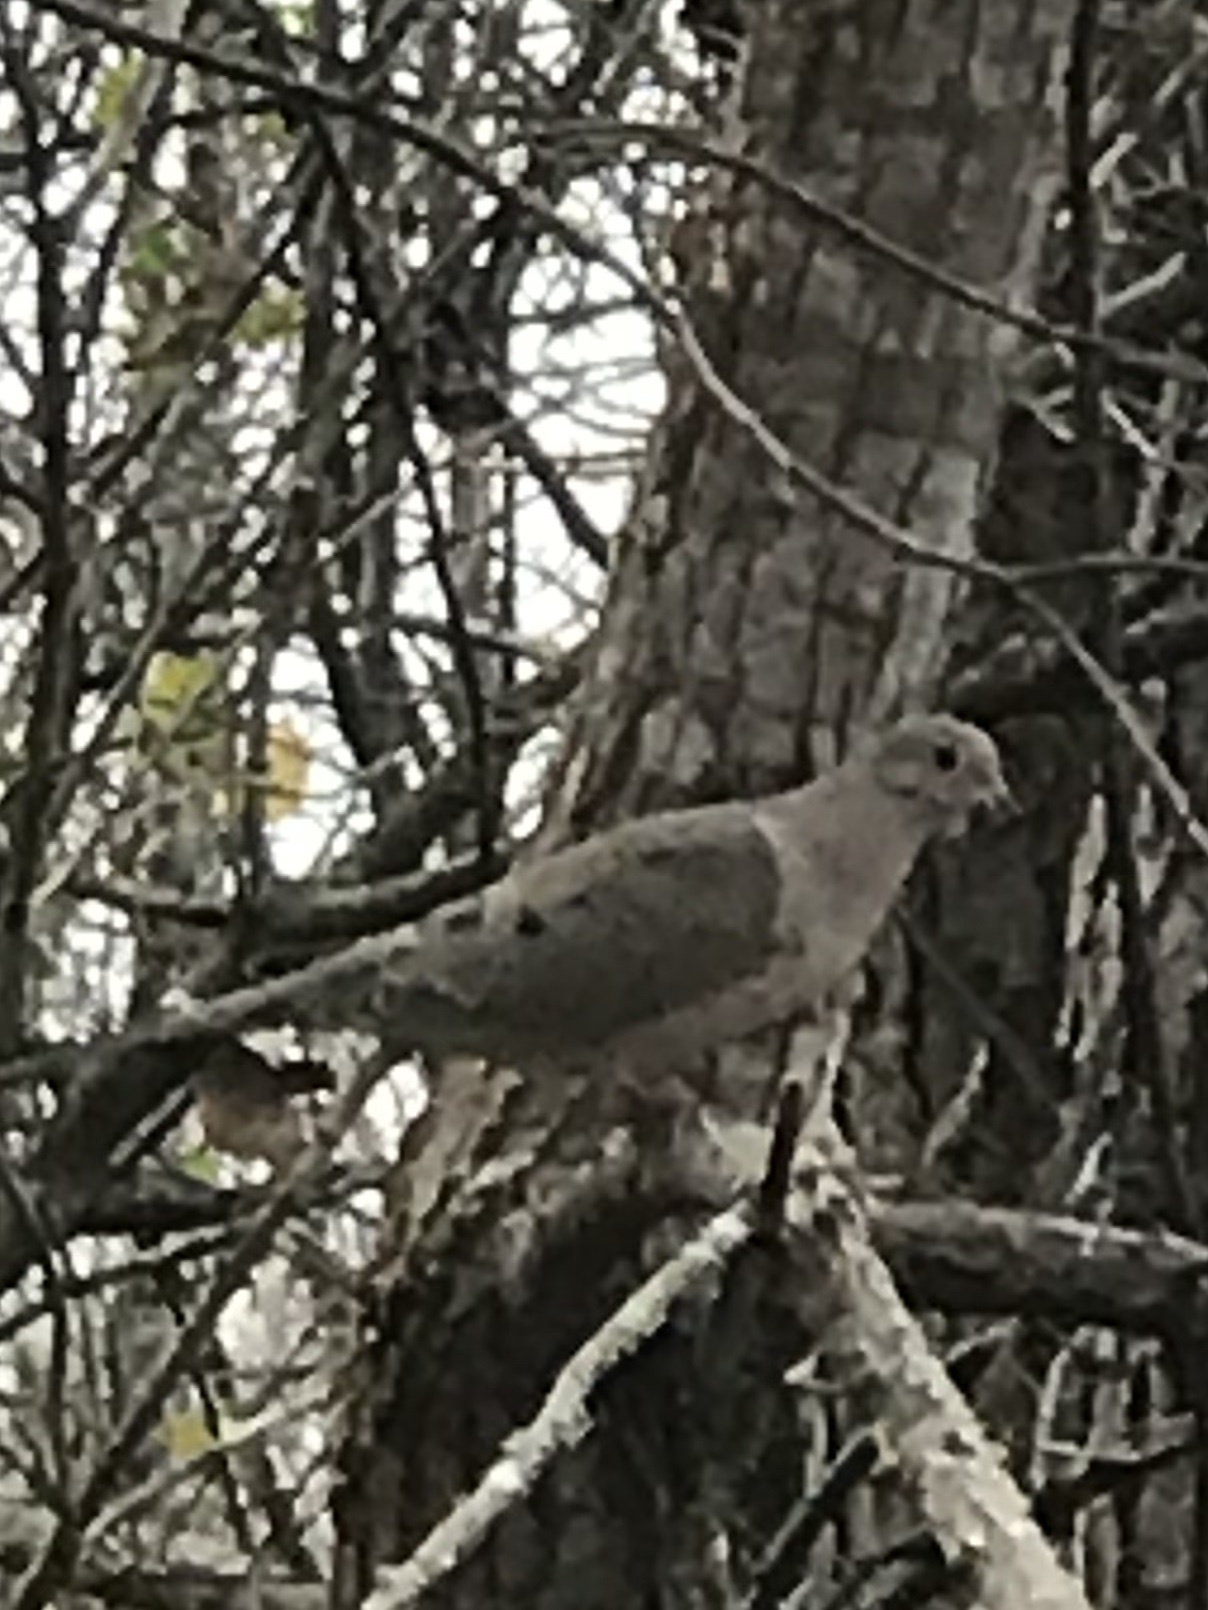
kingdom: Animalia
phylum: Chordata
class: Aves
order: Columbiformes
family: Columbidae
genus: Zenaida
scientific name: Zenaida macroura
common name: Mourning dove
